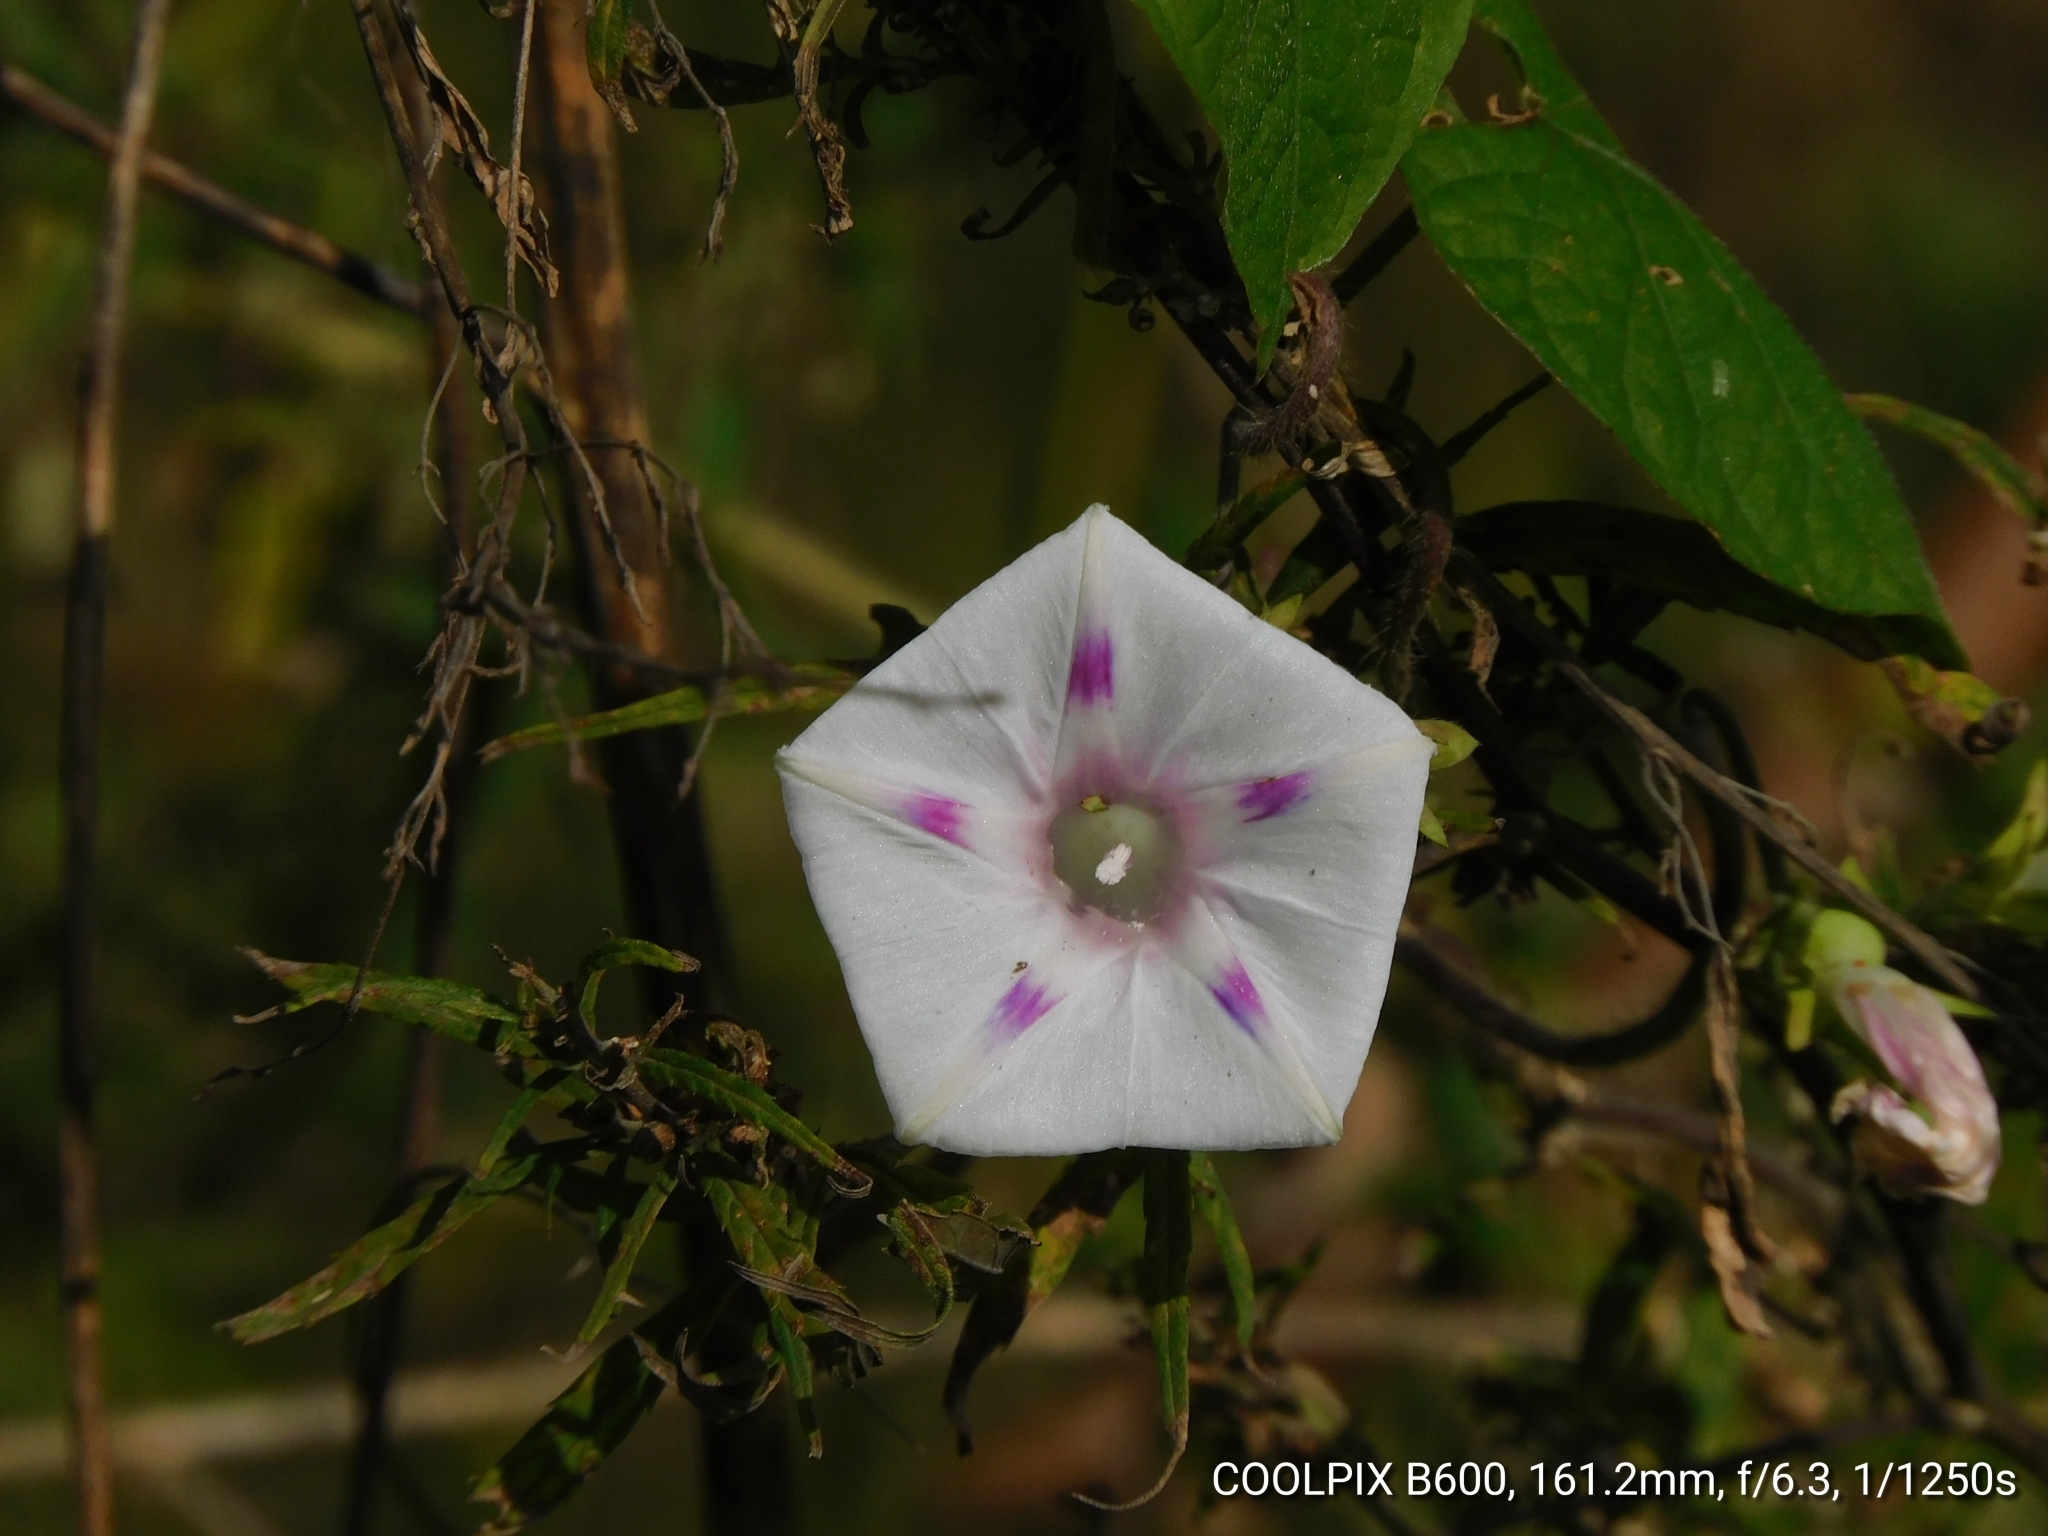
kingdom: Plantae
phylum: Tracheophyta
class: Magnoliopsida
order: Solanales
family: Convolvulaceae
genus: Ipomoea
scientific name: Ipomoea purpurea
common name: Common morning-glory
